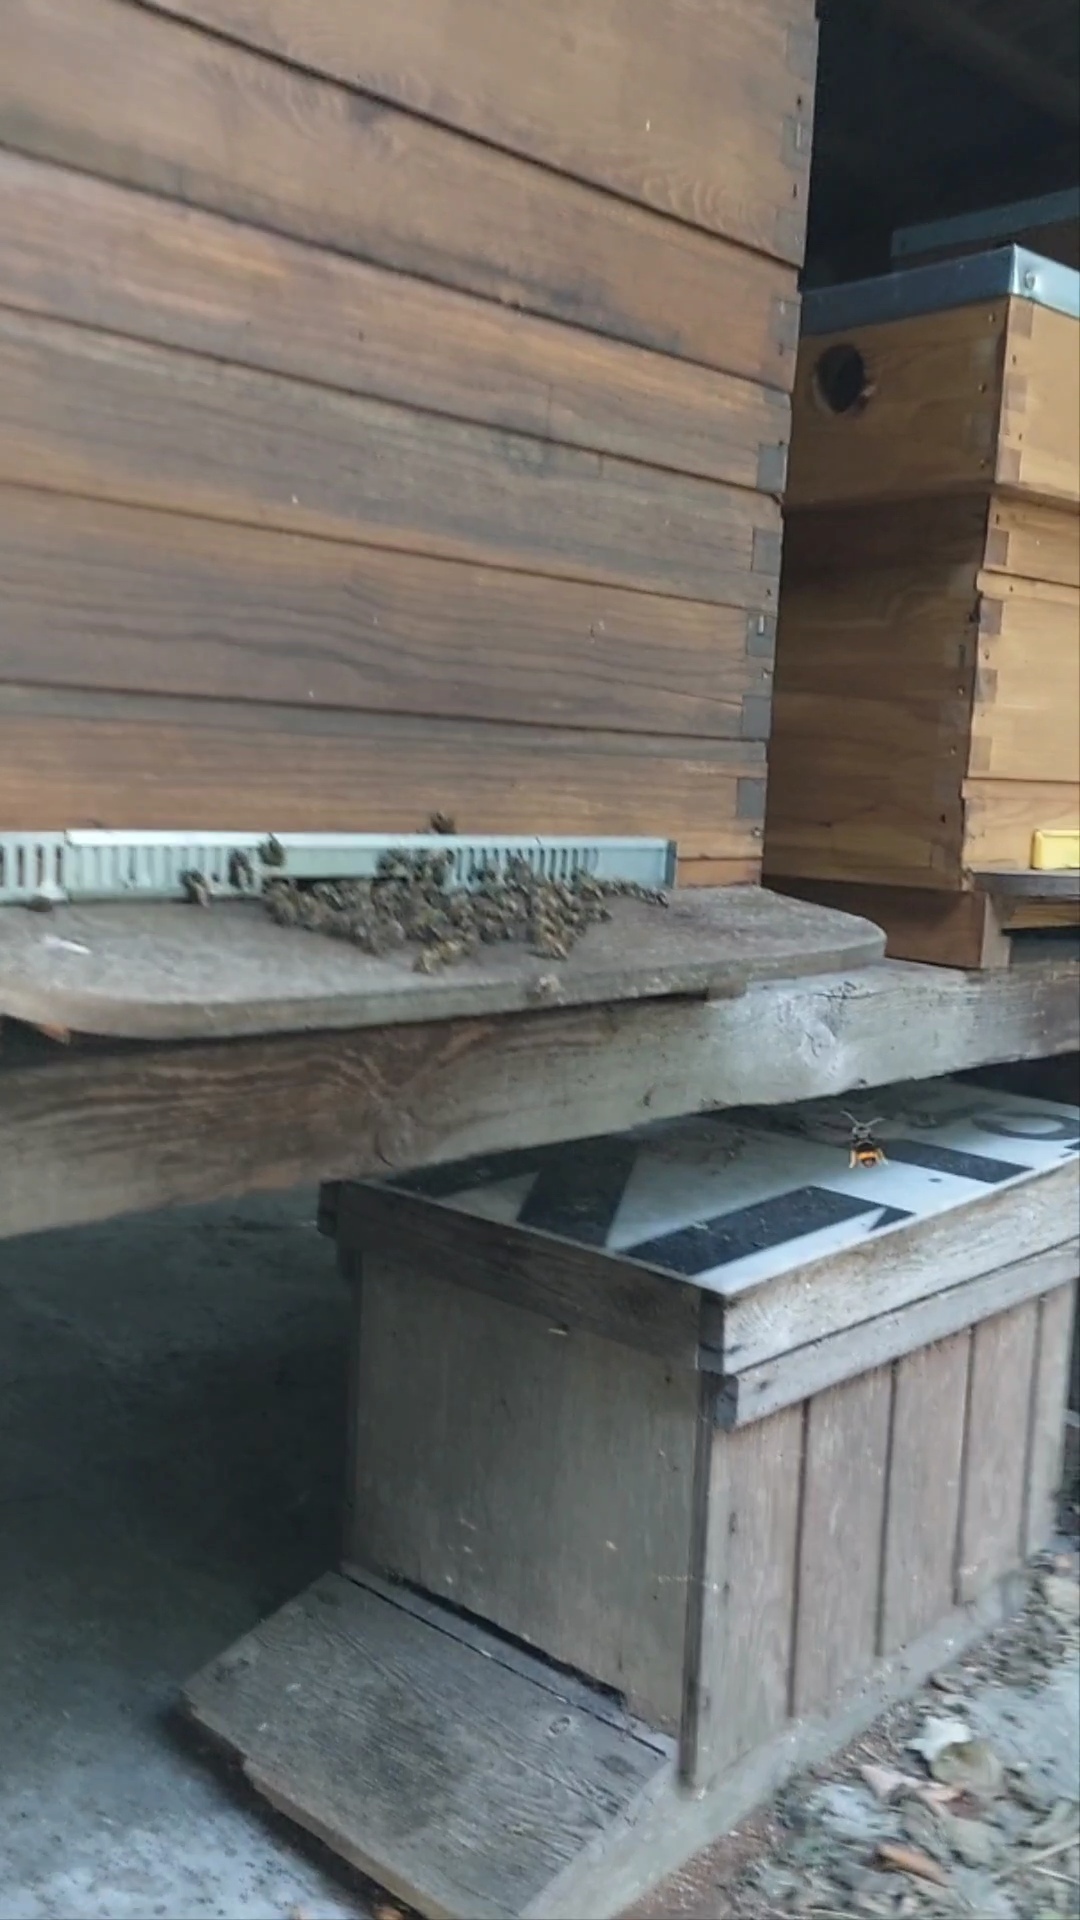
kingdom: Animalia
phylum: Arthropoda
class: Insecta
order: Hymenoptera
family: Vespidae
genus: Vespa
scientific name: Vespa velutina
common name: Asian hornet
